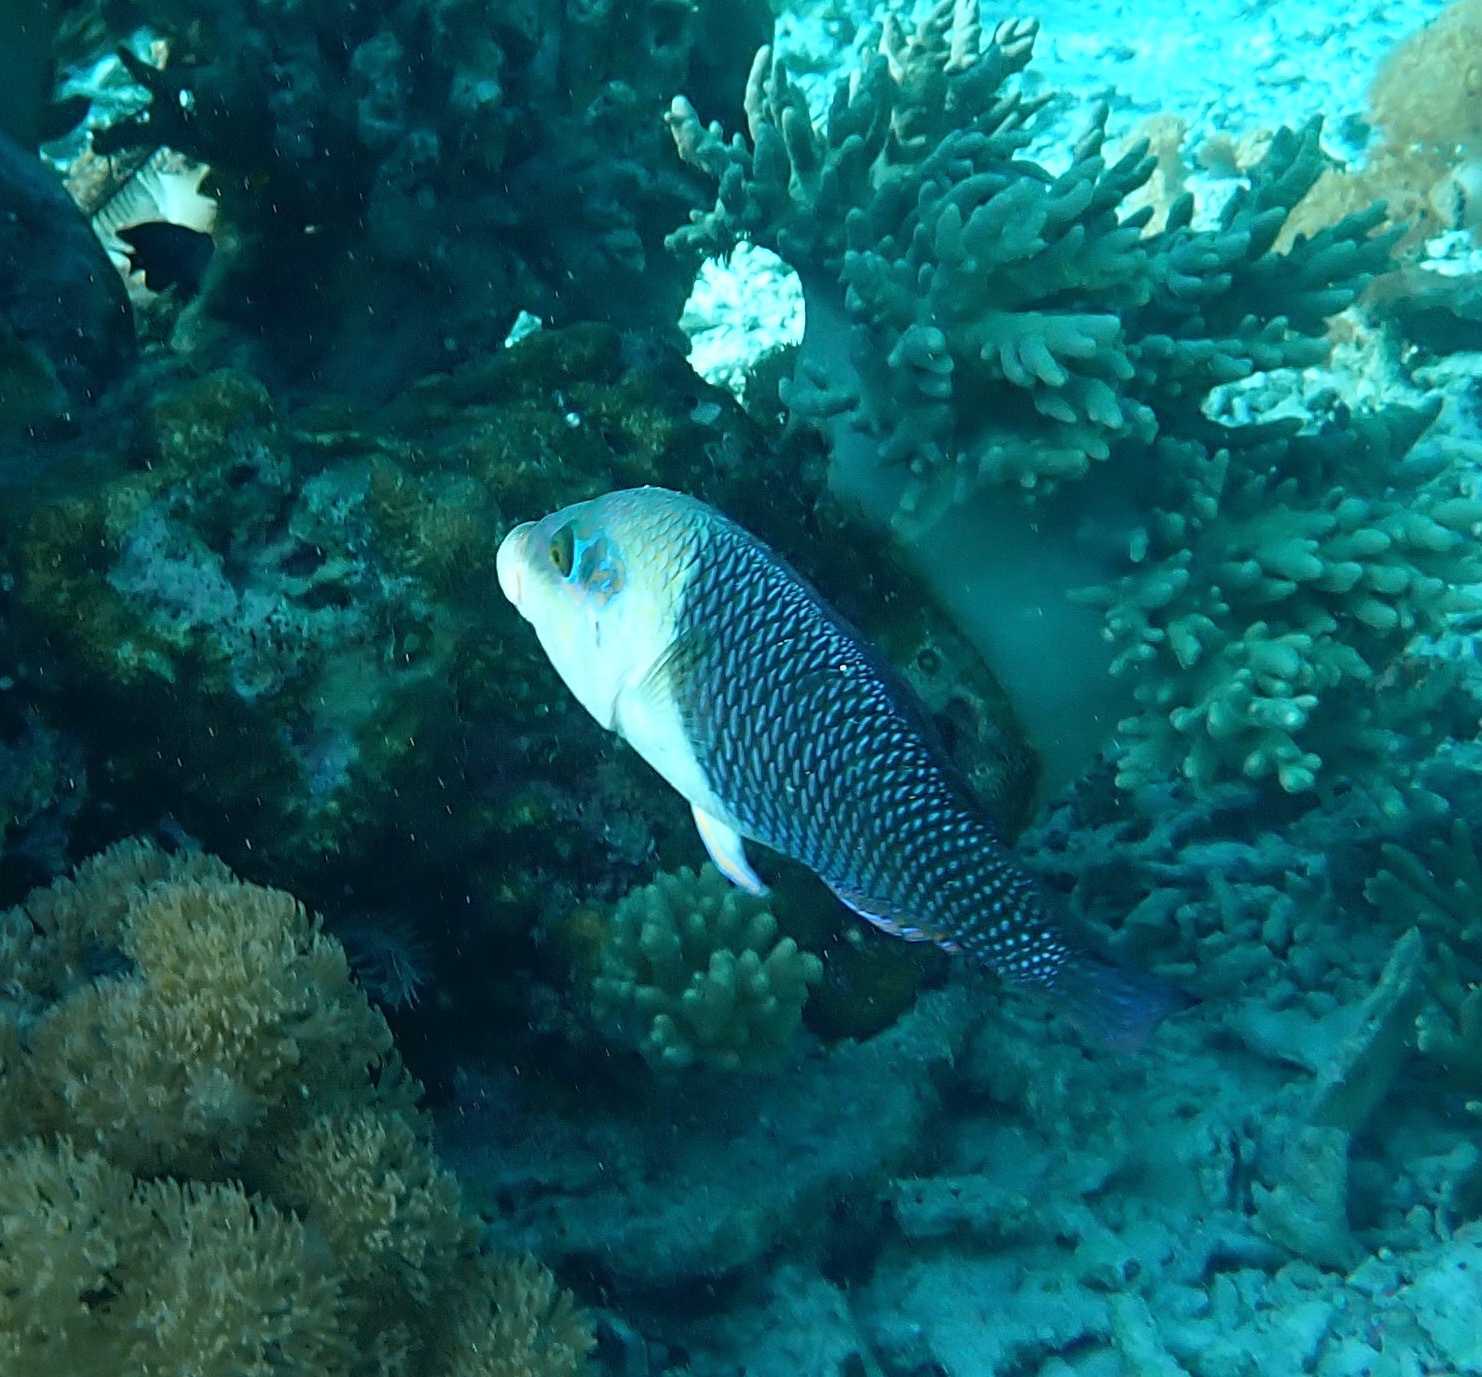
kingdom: Animalia
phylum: Chordata
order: Perciformes
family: Labridae
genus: Hemigymnus
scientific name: Hemigymnus melapterus
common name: Blackeye thicklip
